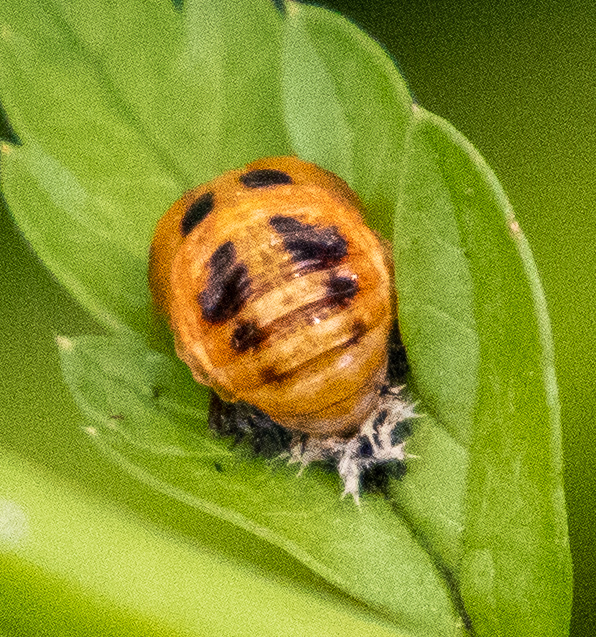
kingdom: Animalia
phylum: Arthropoda
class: Insecta
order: Coleoptera
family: Coccinellidae
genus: Harmonia
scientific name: Harmonia axyridis
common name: Harlequin ladybird
